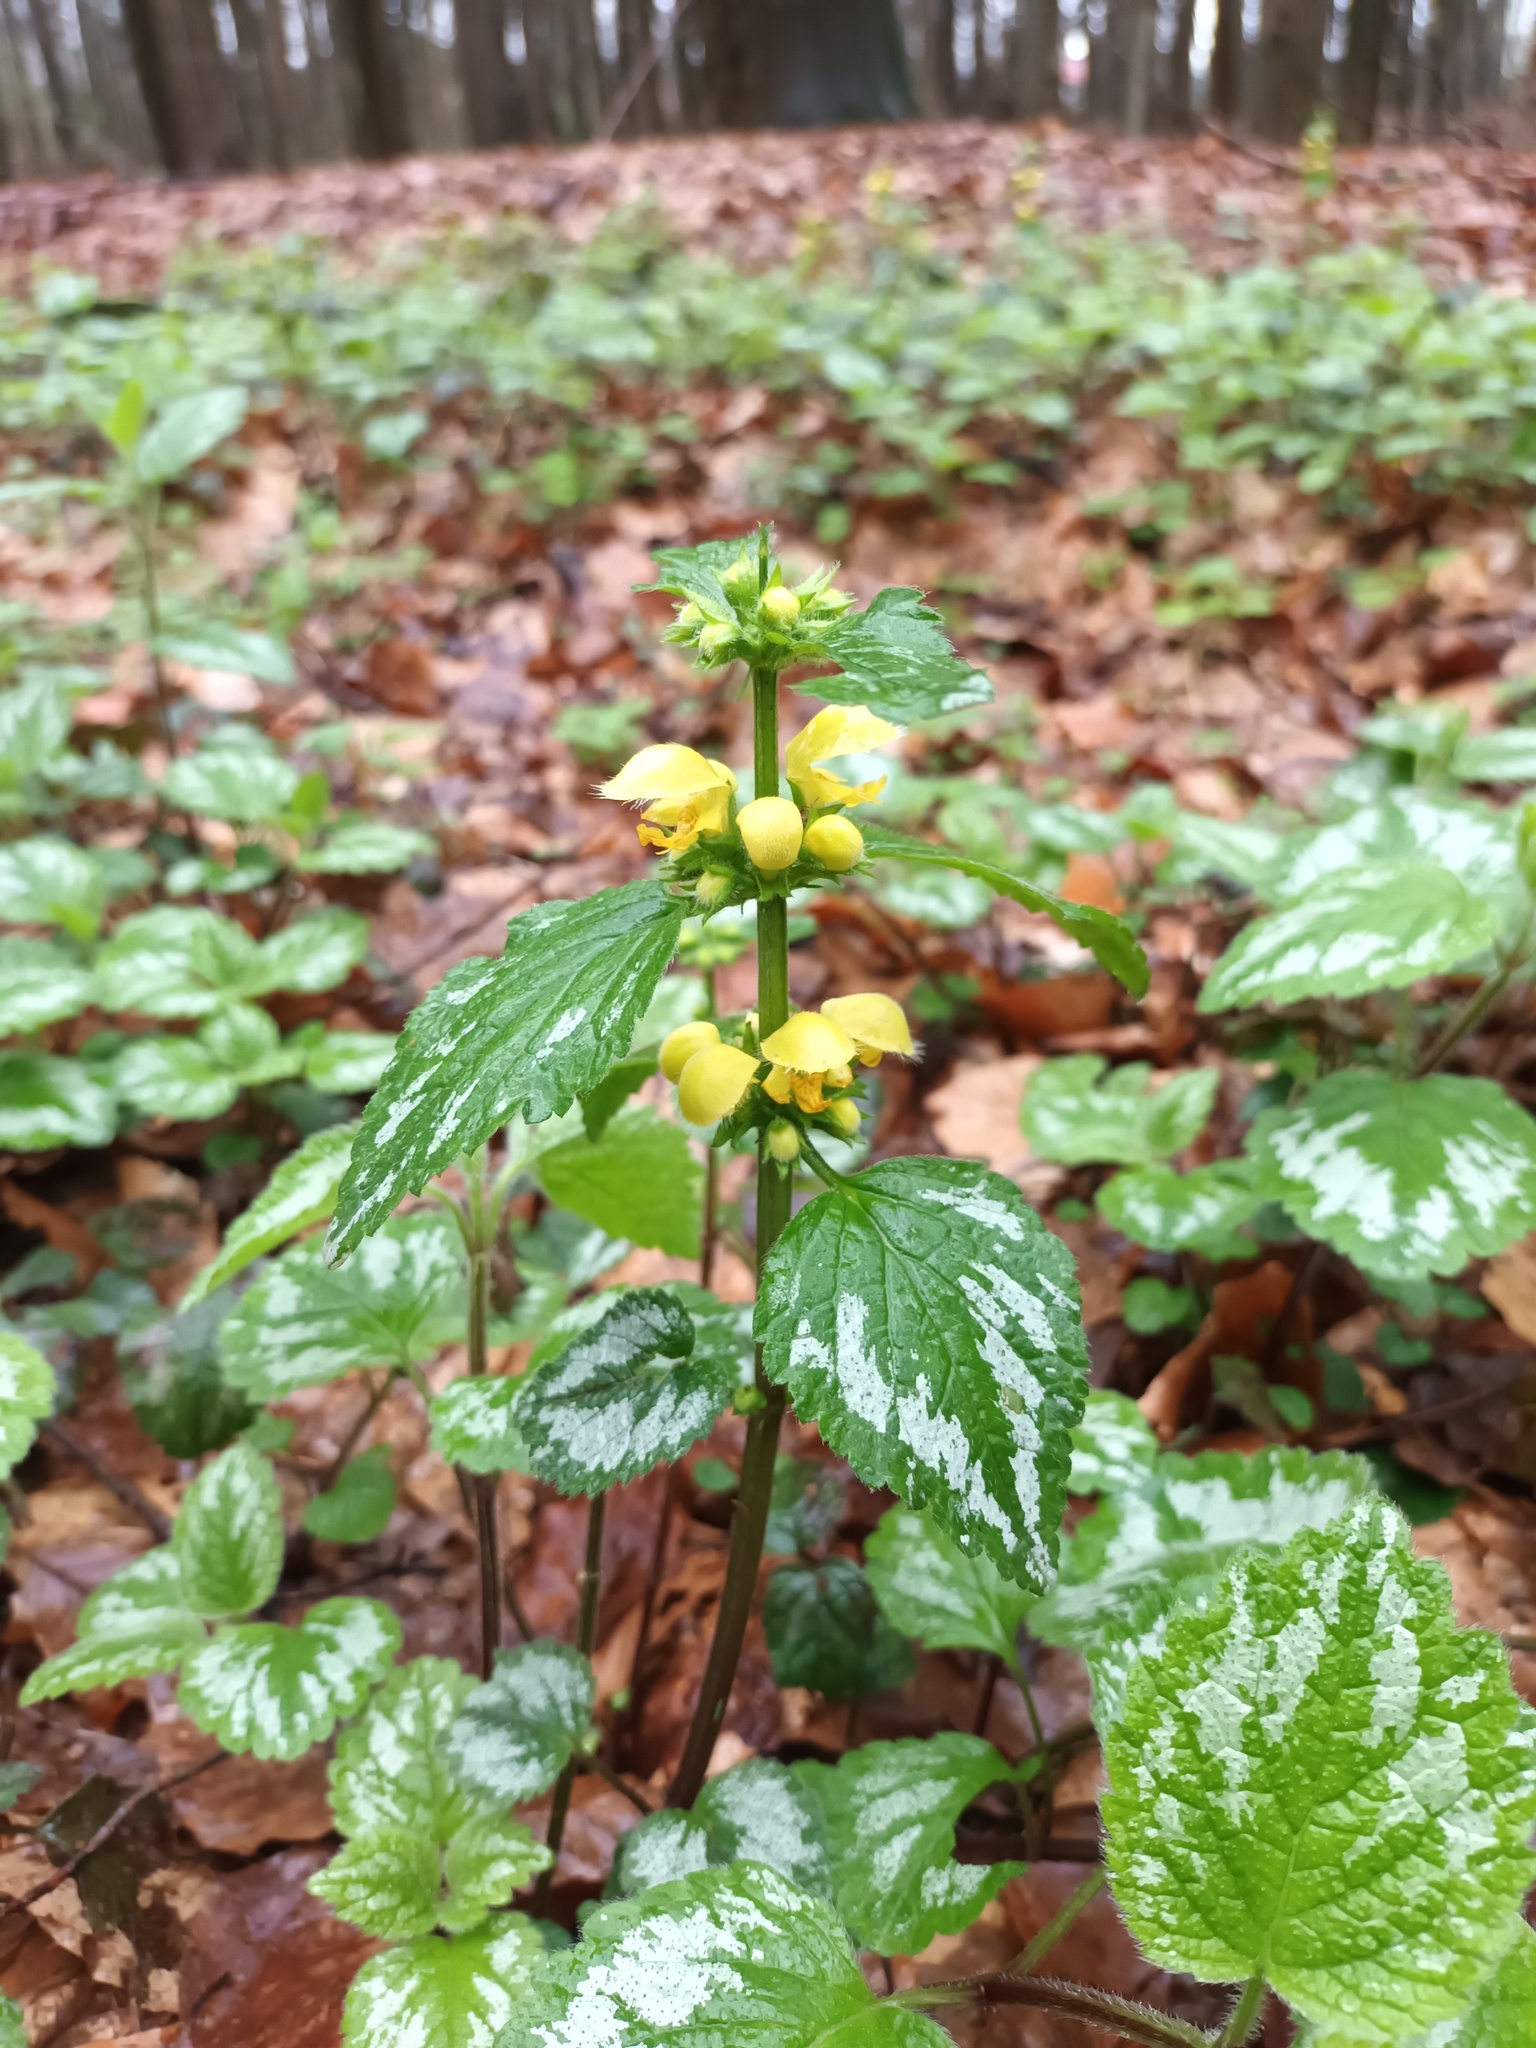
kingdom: Plantae
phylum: Tracheophyta
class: Magnoliopsida
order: Lamiales
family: Lamiaceae
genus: Lamium
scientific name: Lamium galeobdolon
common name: Yellow archangel
